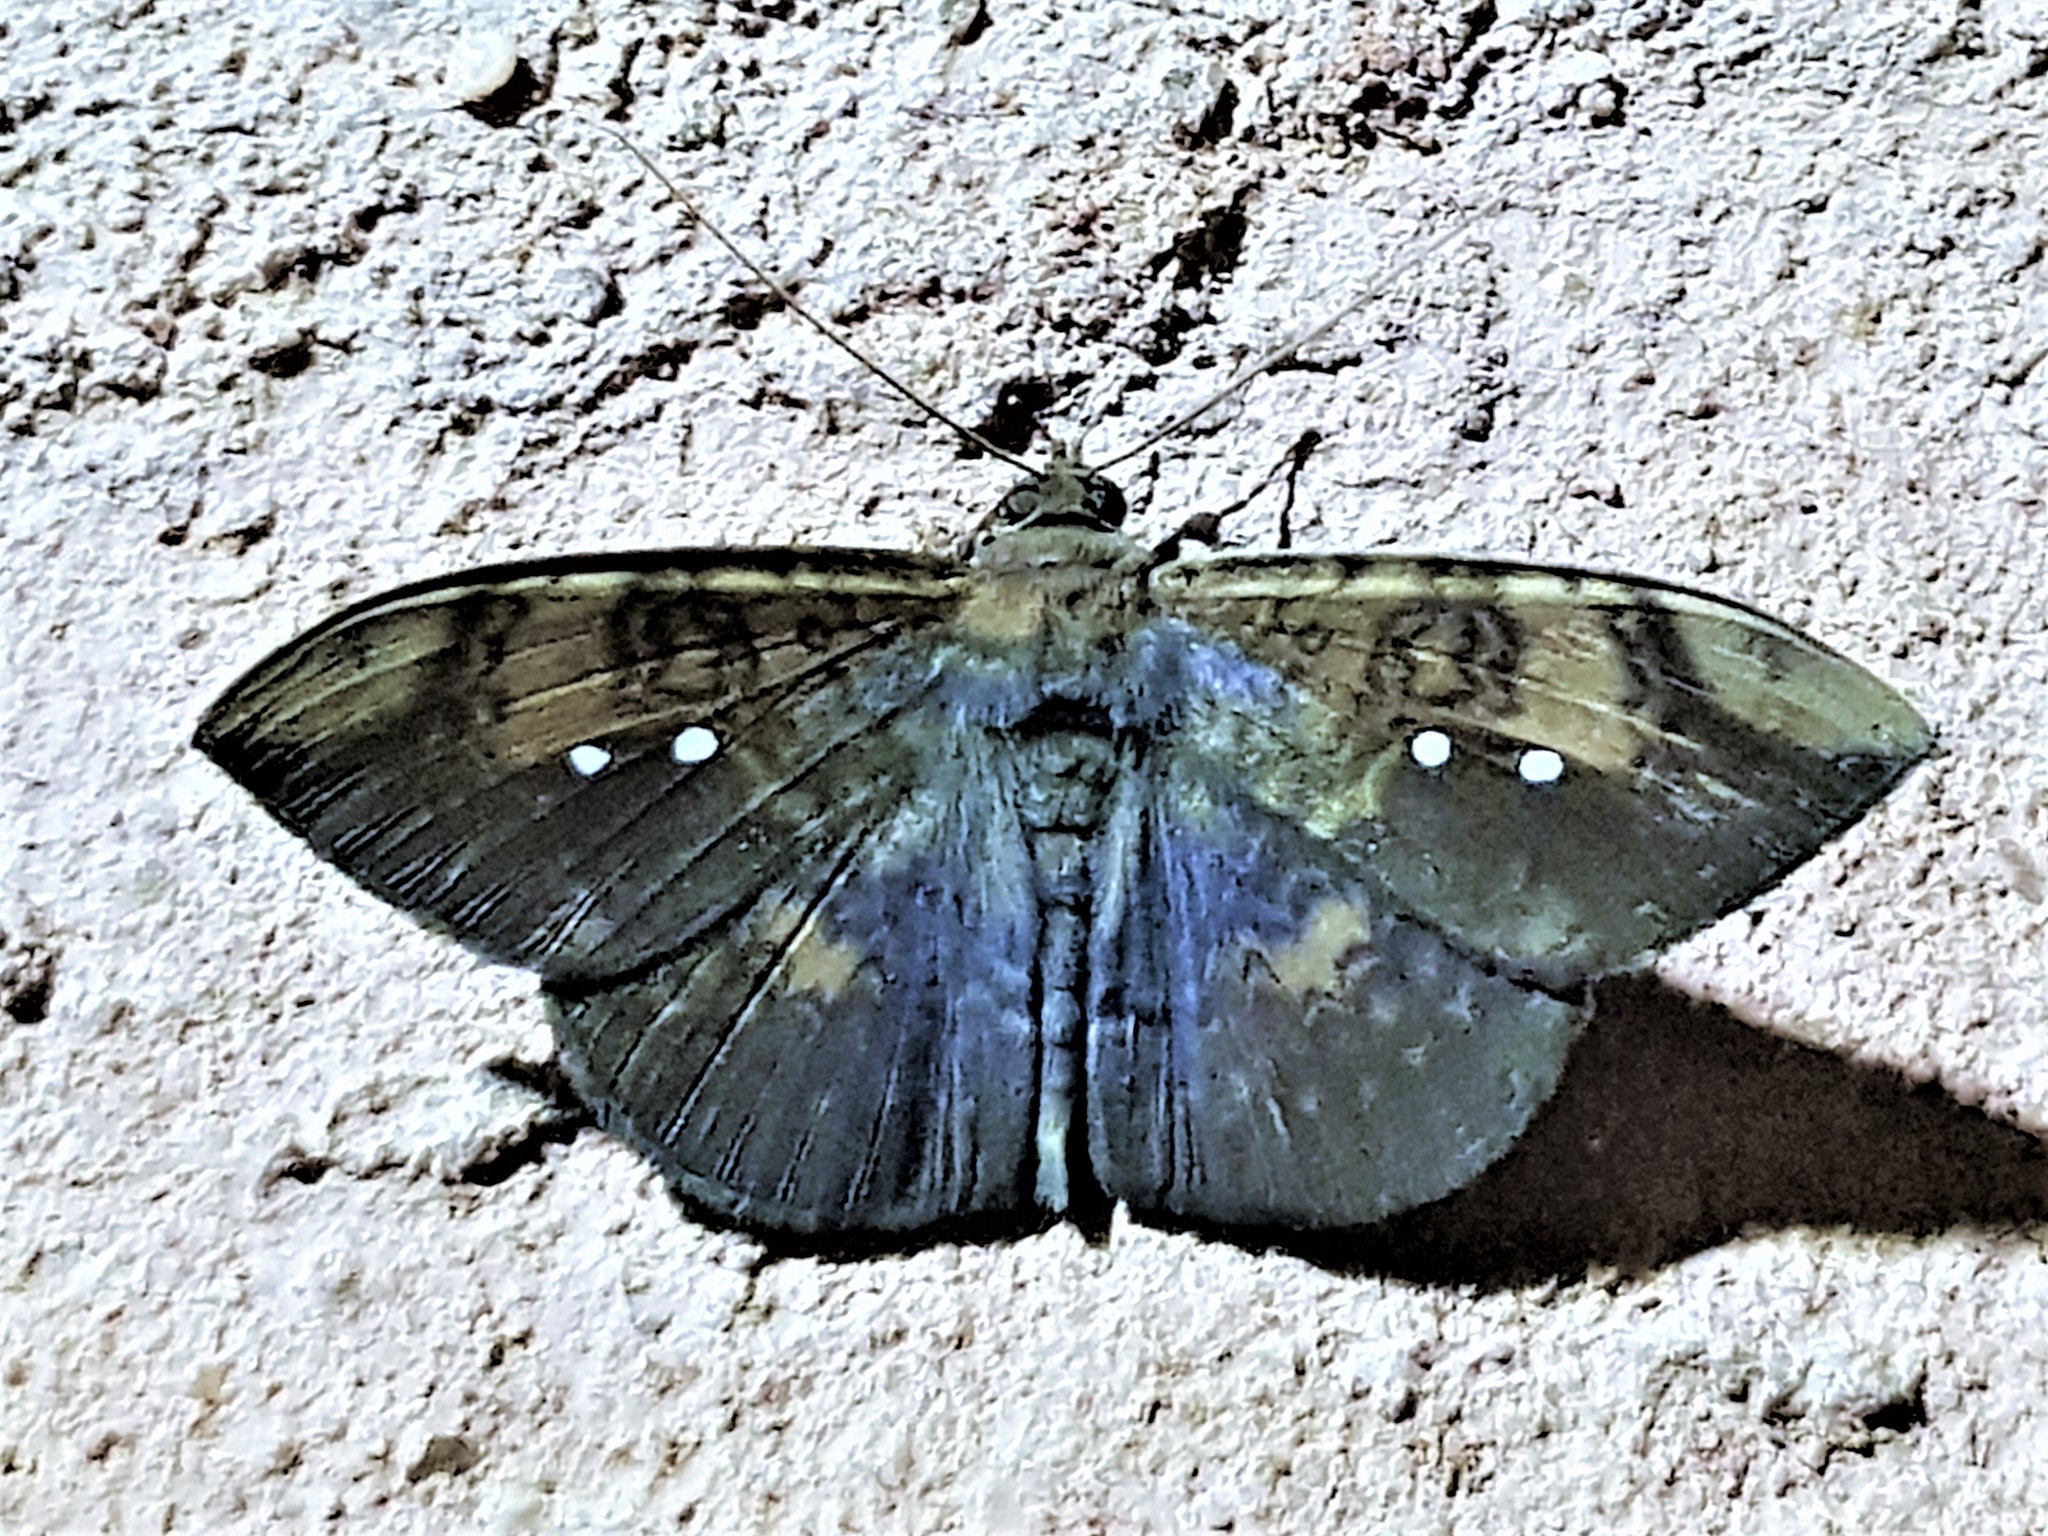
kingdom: Animalia
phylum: Arthropoda
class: Insecta
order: Lepidoptera
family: Erebidae
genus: Hemeroblemma
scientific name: Hemeroblemma lioneli
